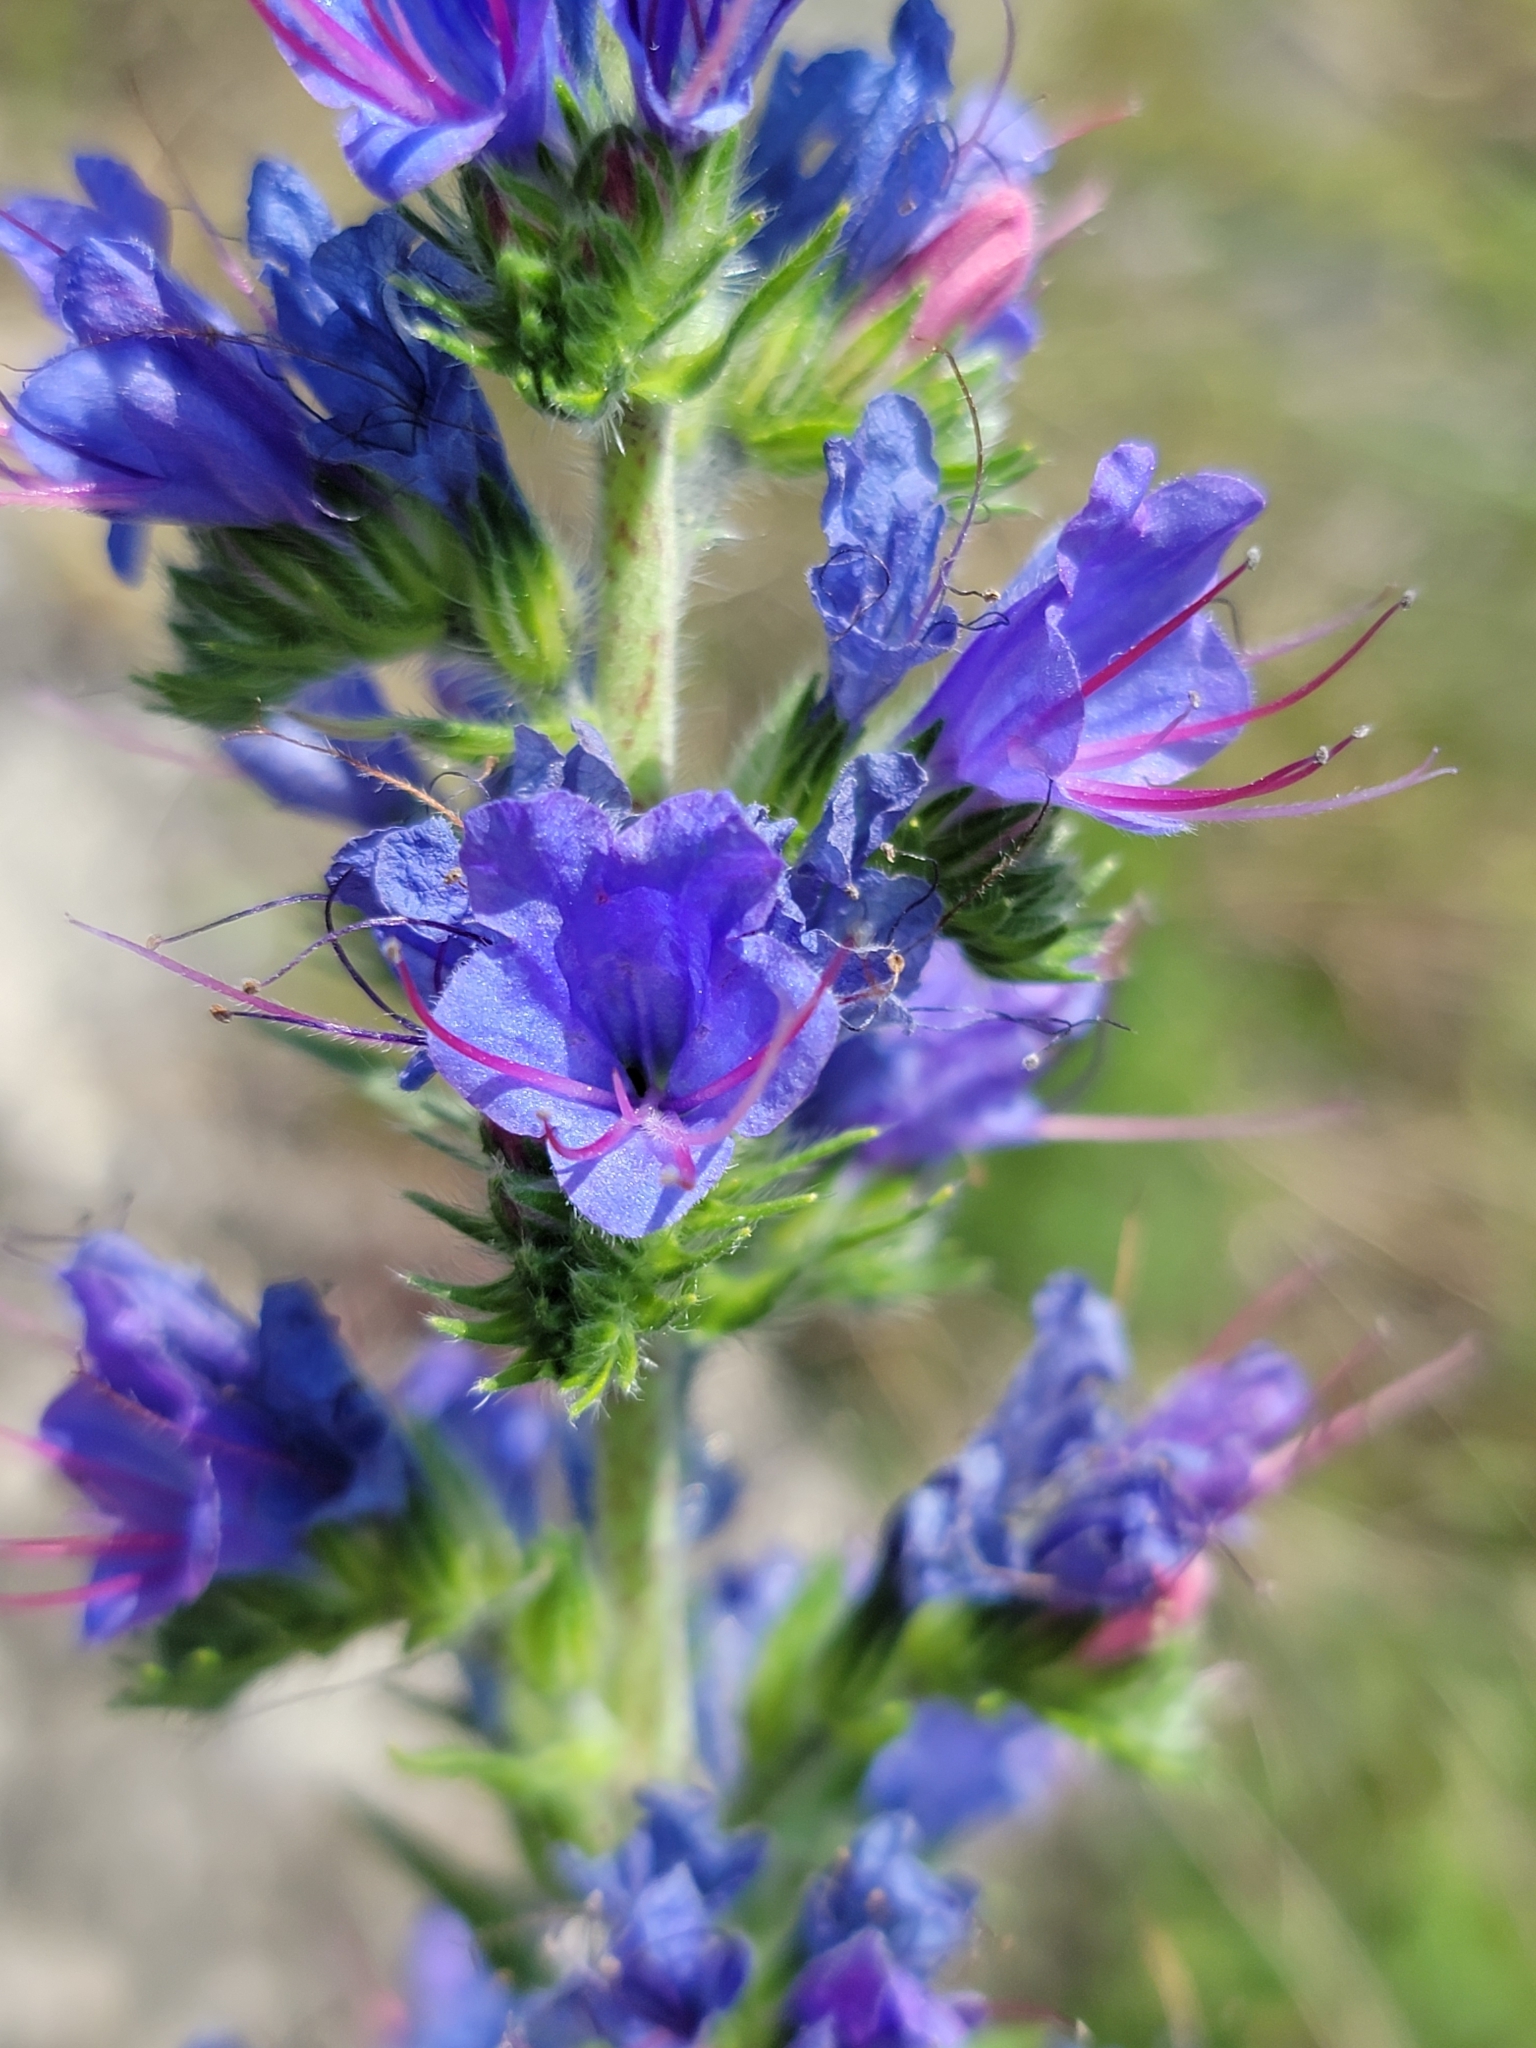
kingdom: Plantae
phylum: Tracheophyta
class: Magnoliopsida
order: Boraginales
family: Boraginaceae
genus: Echium
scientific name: Echium vulgare
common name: Common viper's bugloss
